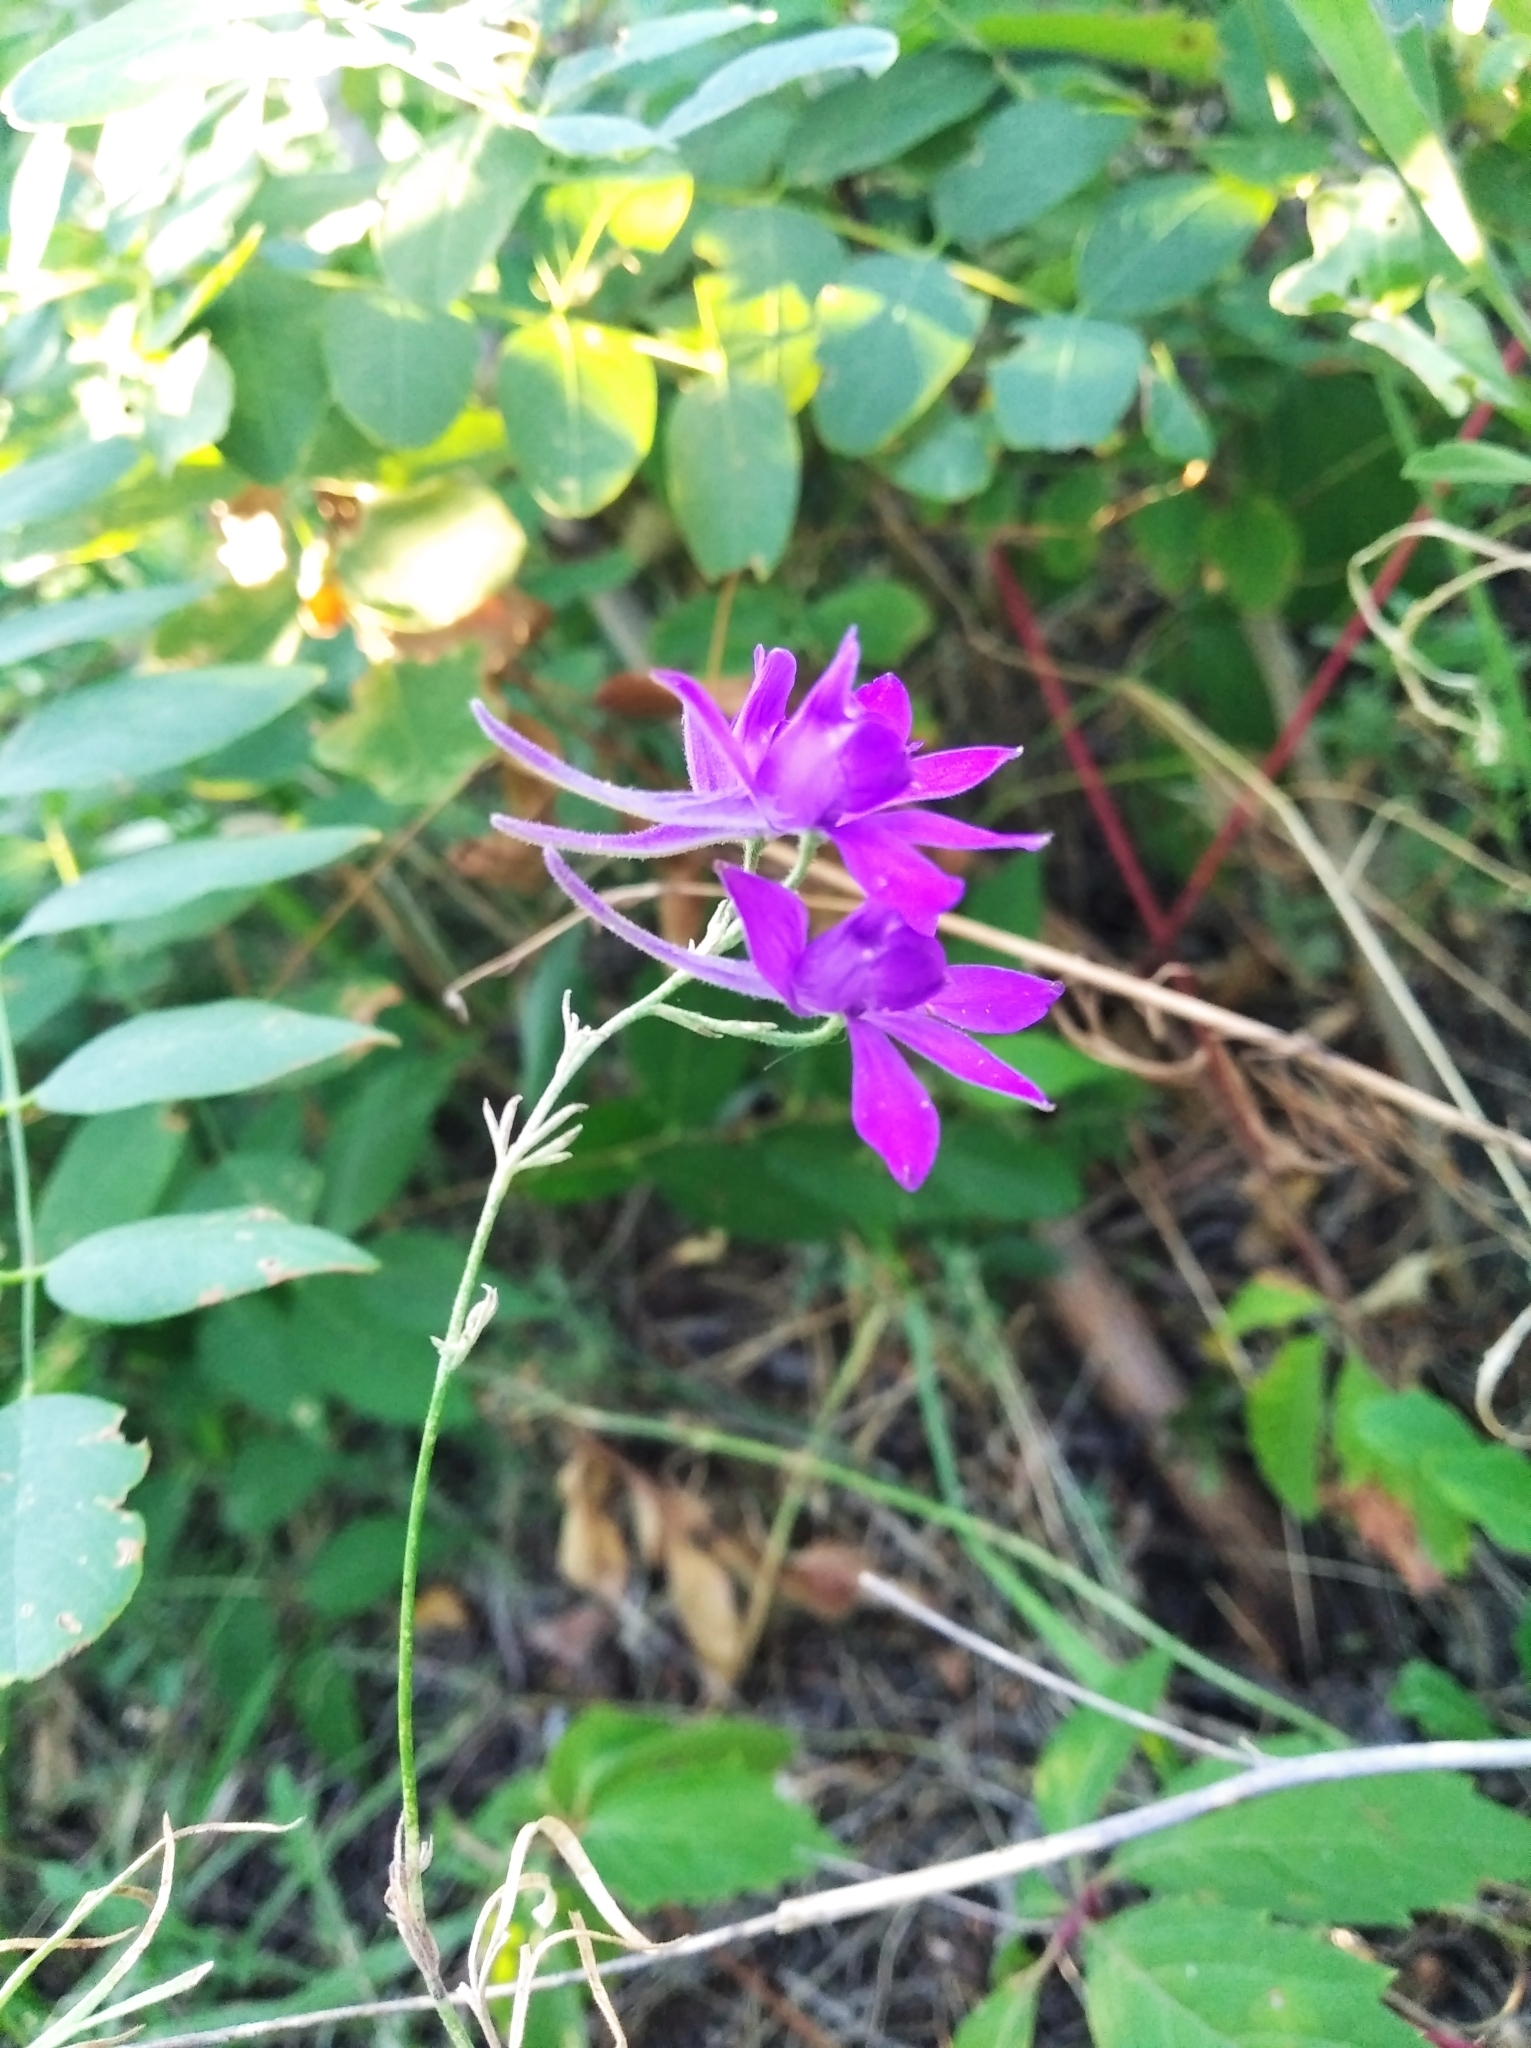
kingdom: Plantae
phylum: Tracheophyta
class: Magnoliopsida
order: Ranunculales
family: Ranunculaceae
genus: Delphinium
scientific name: Delphinium consolida
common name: Branching larkspur
